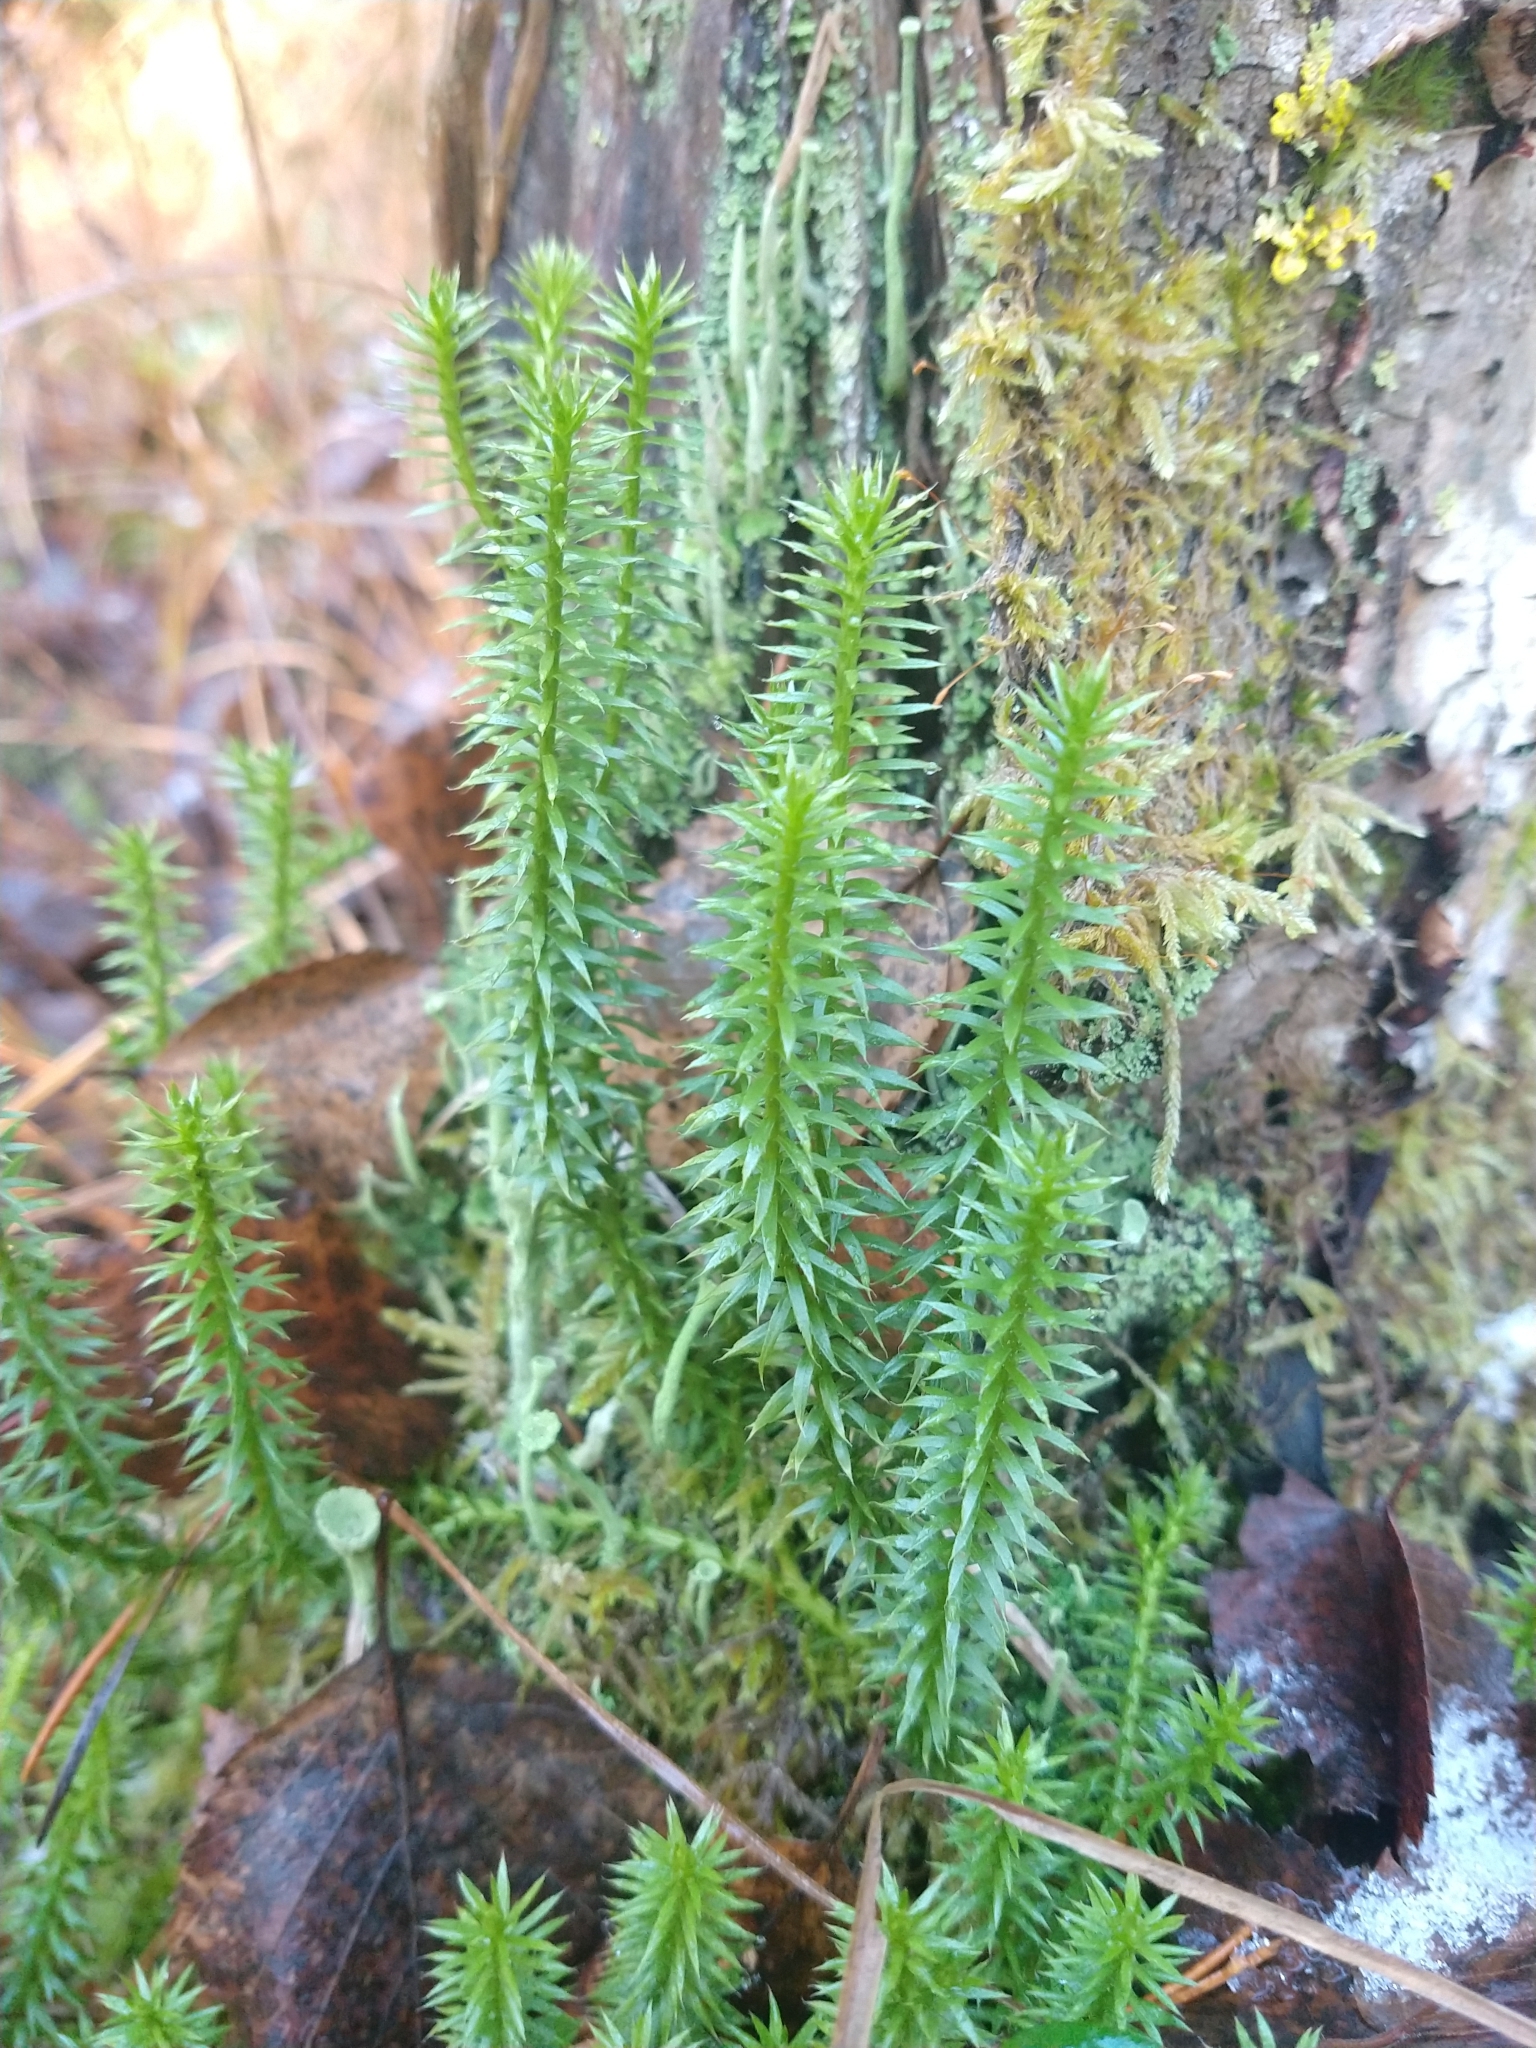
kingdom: Plantae
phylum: Tracheophyta
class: Lycopodiopsida
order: Lycopodiales
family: Lycopodiaceae
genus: Spinulum
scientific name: Spinulum annotinum
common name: Interrupted club-moss
